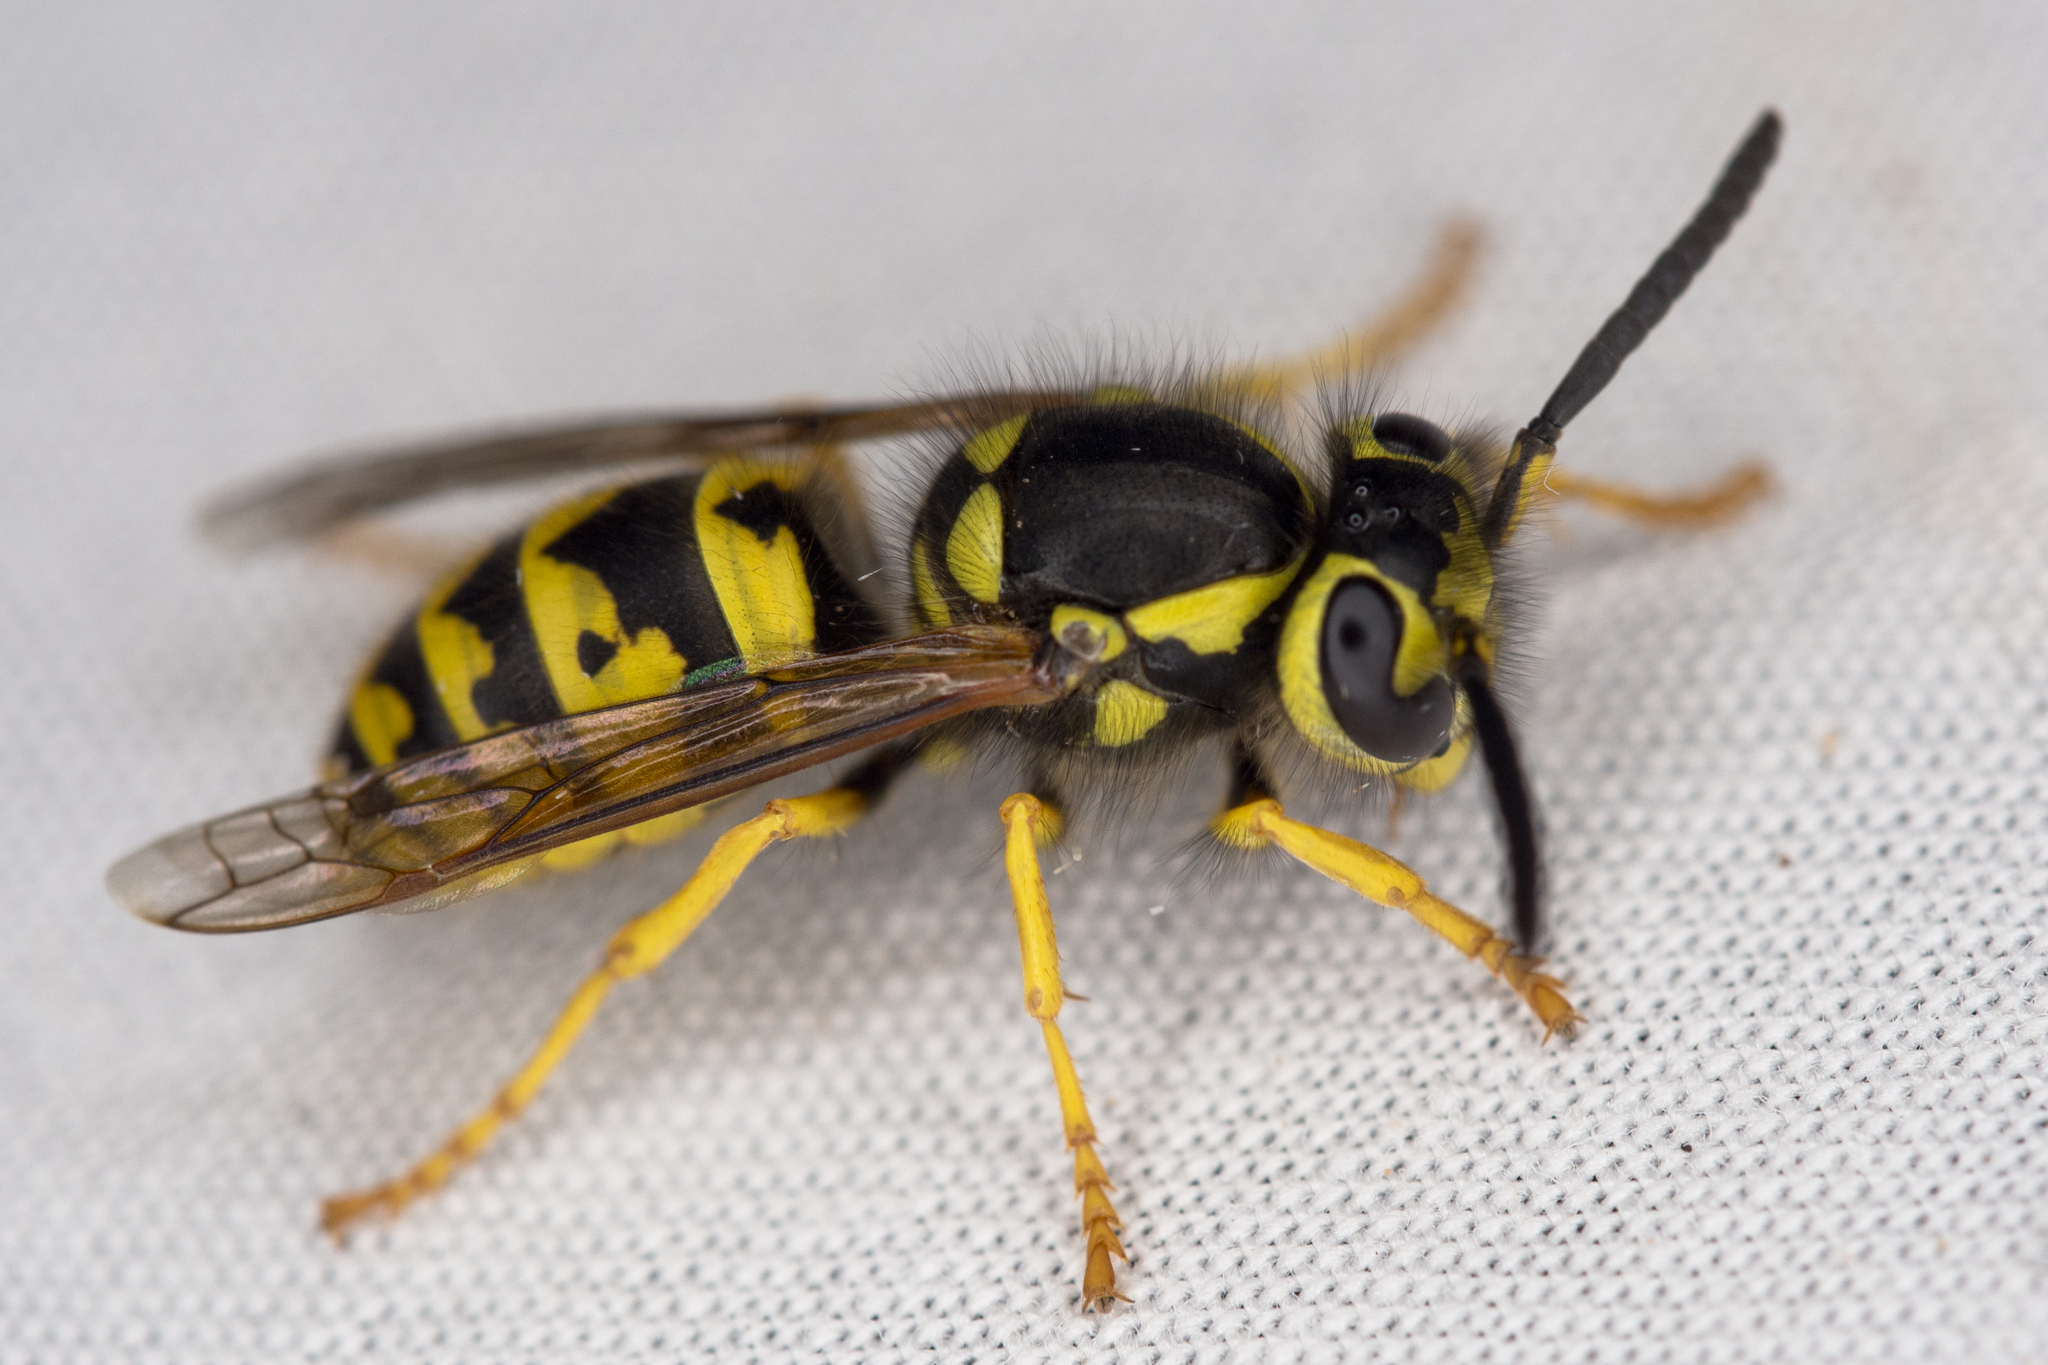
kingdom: Animalia
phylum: Arthropoda
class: Insecta
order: Hymenoptera
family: Vespidae
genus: Vespula
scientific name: Vespula pensylvanica
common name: Western yellowjacket
